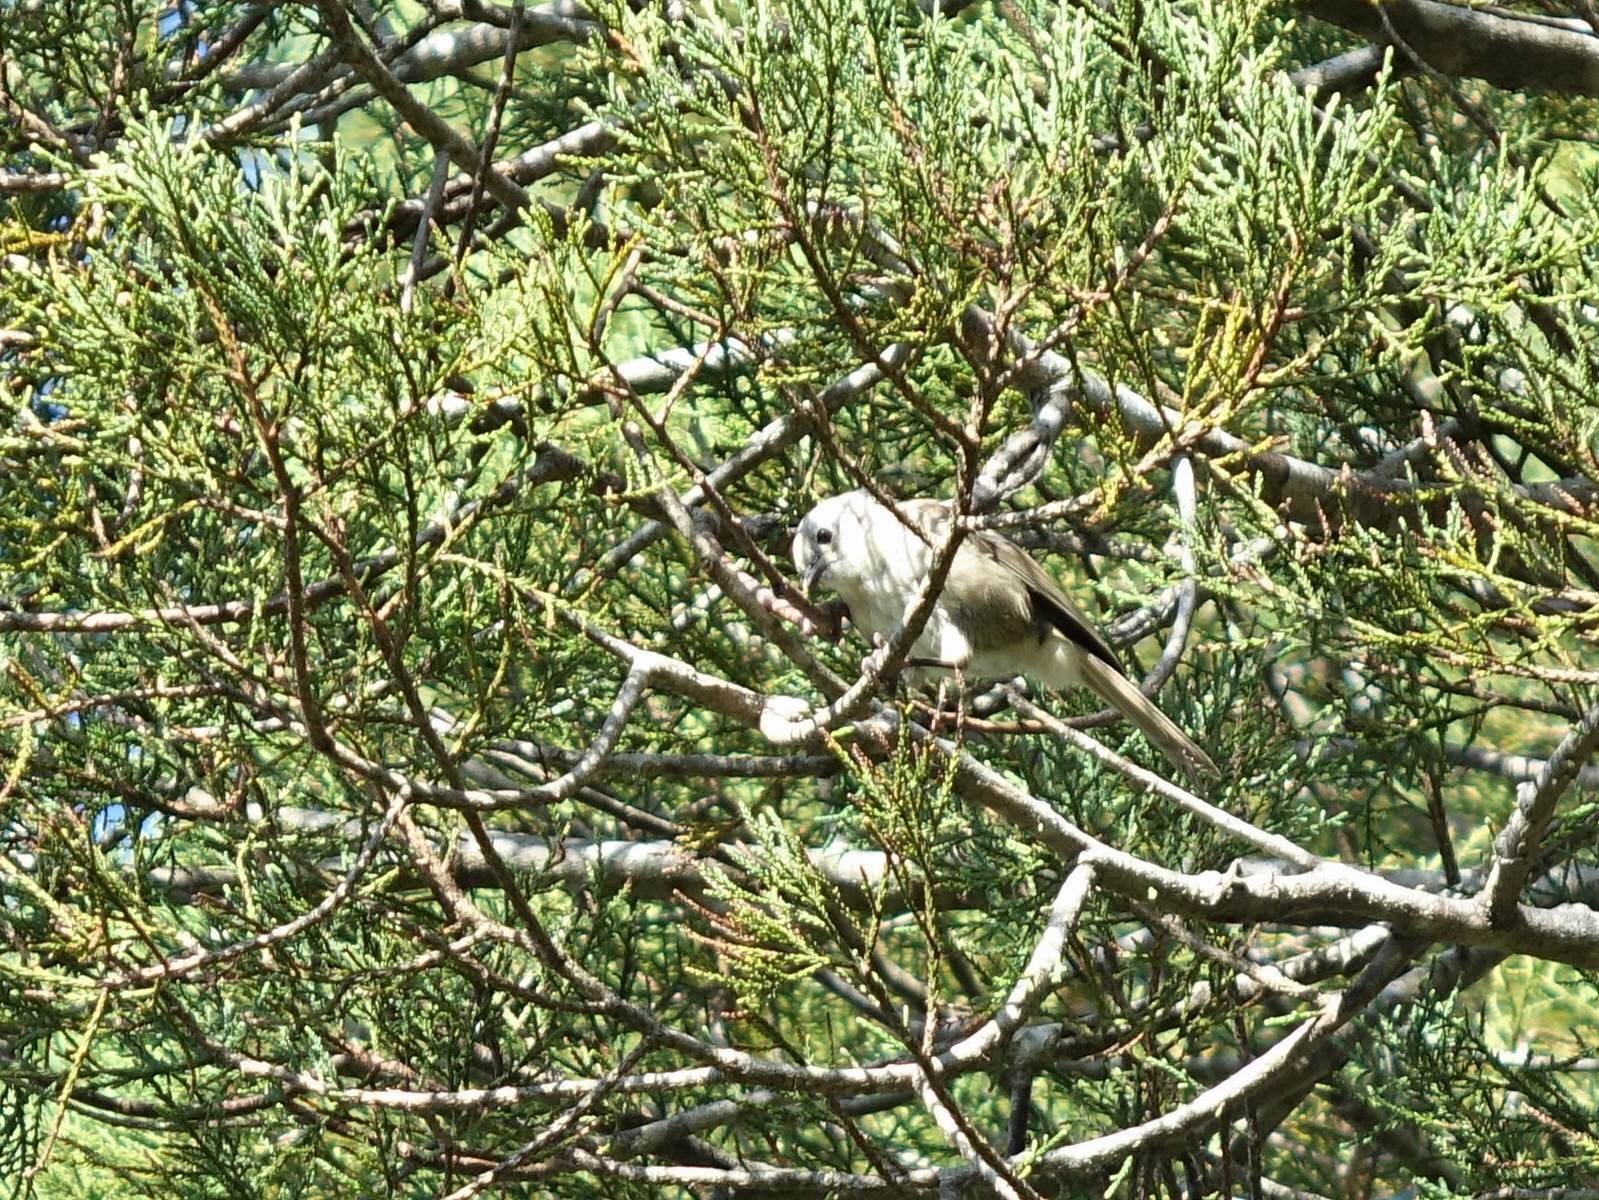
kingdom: Animalia
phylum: Chordata
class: Aves
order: Passeriformes
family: Acanthizidae
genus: Mohoua
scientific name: Mohoua albicilla
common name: Whitehead
